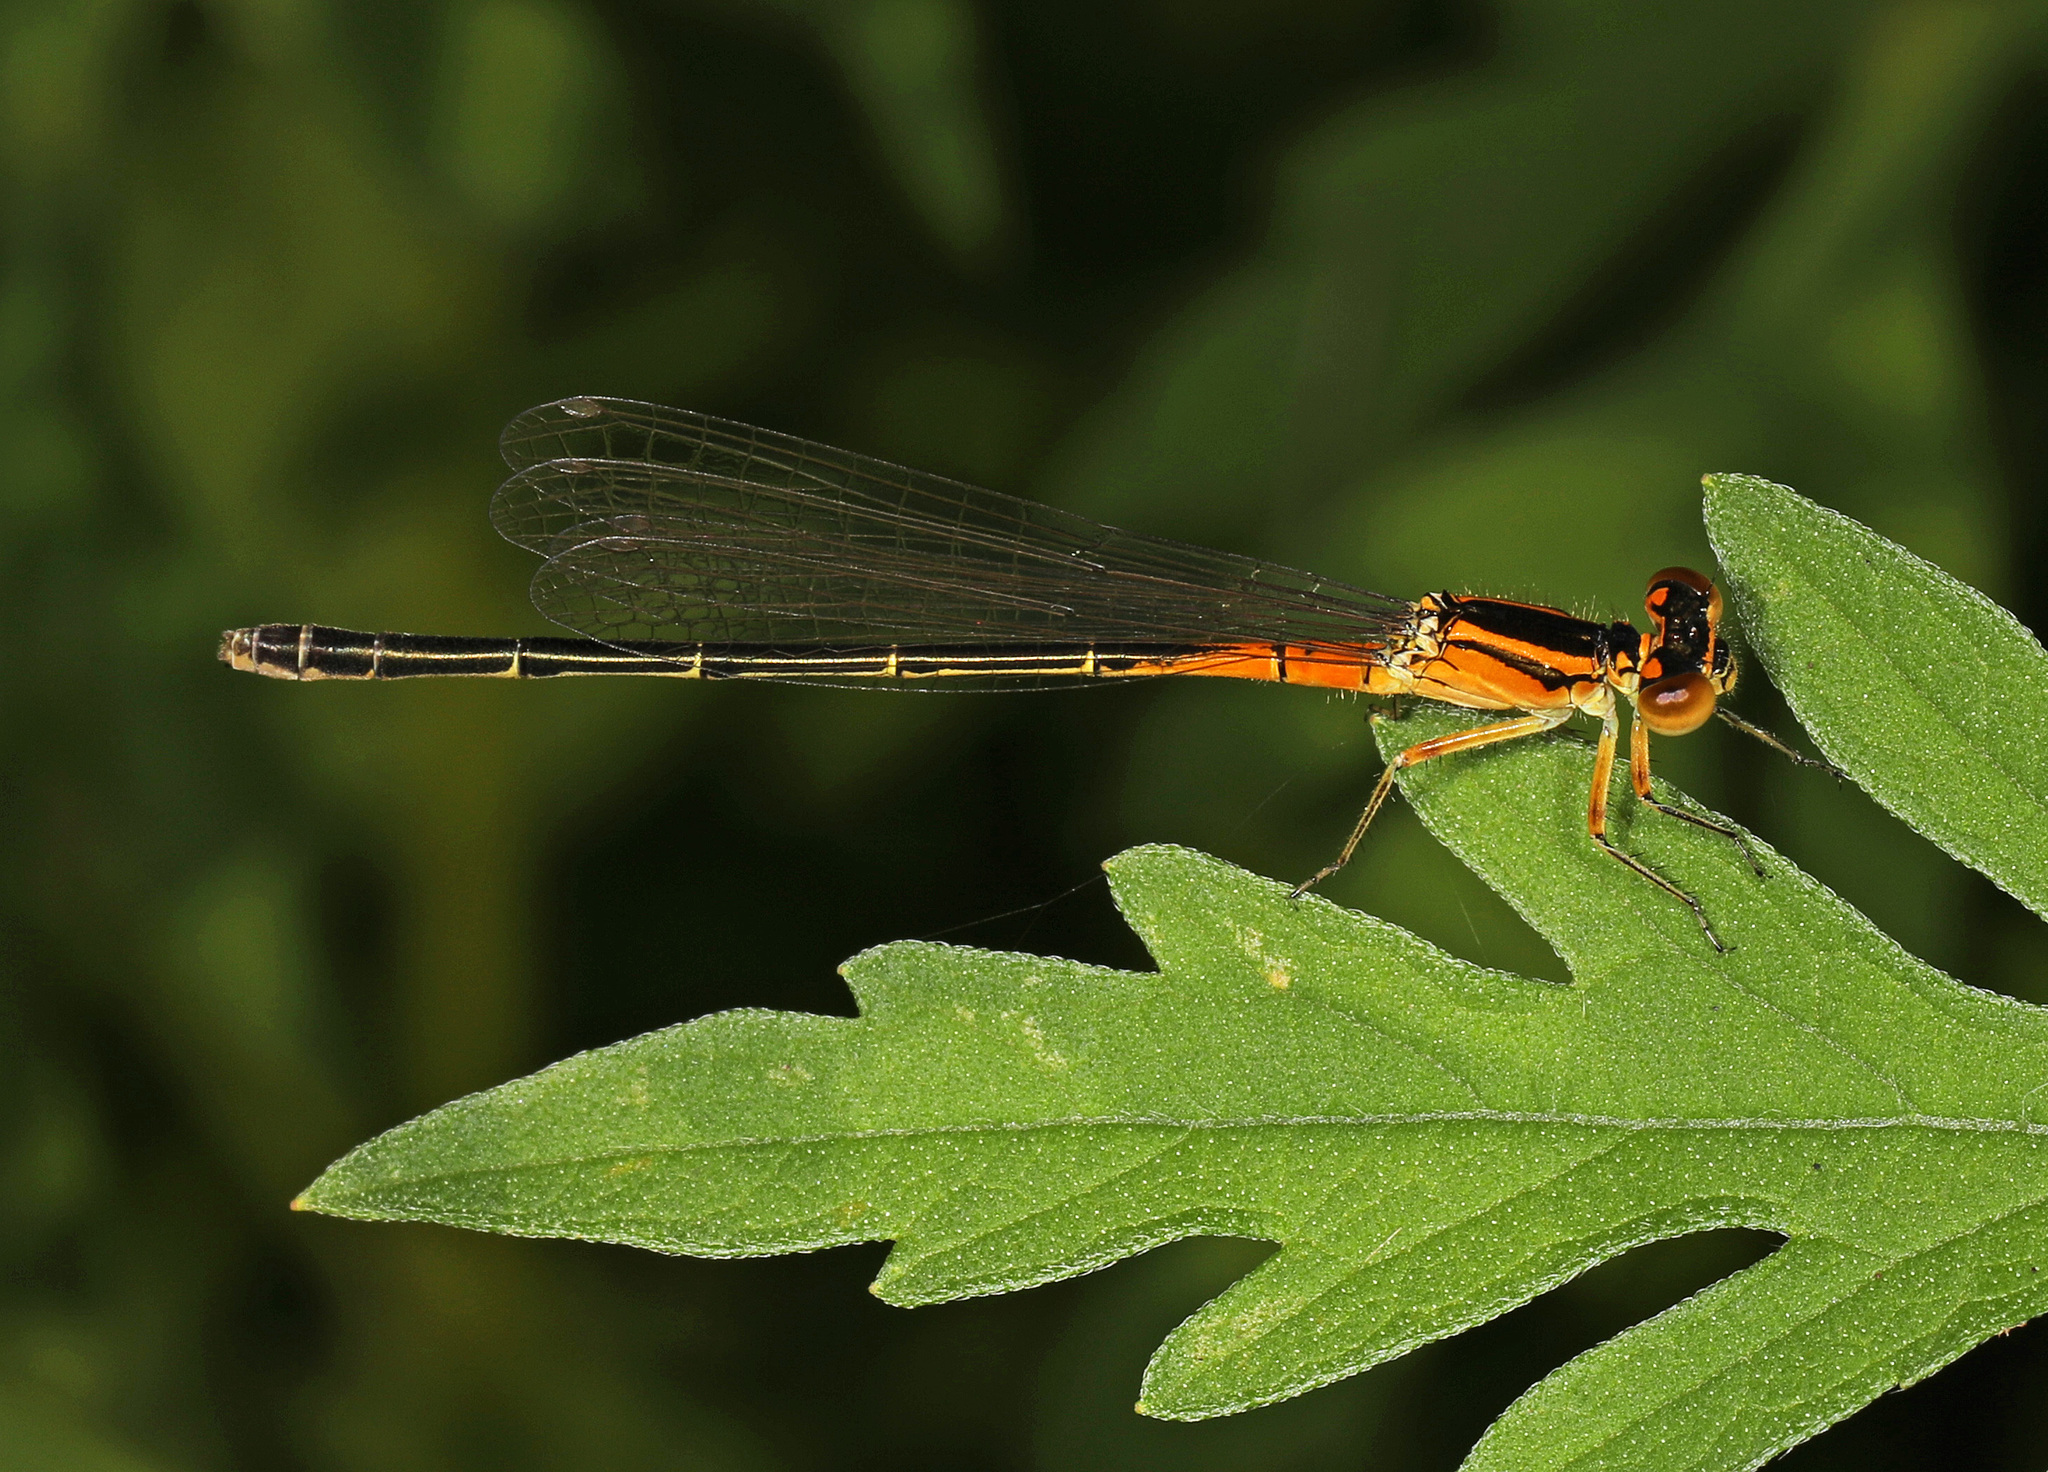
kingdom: Animalia
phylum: Arthropoda
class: Insecta
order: Odonata
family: Coenagrionidae
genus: Ischnura
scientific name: Ischnura verticalis
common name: Eastern forktail
